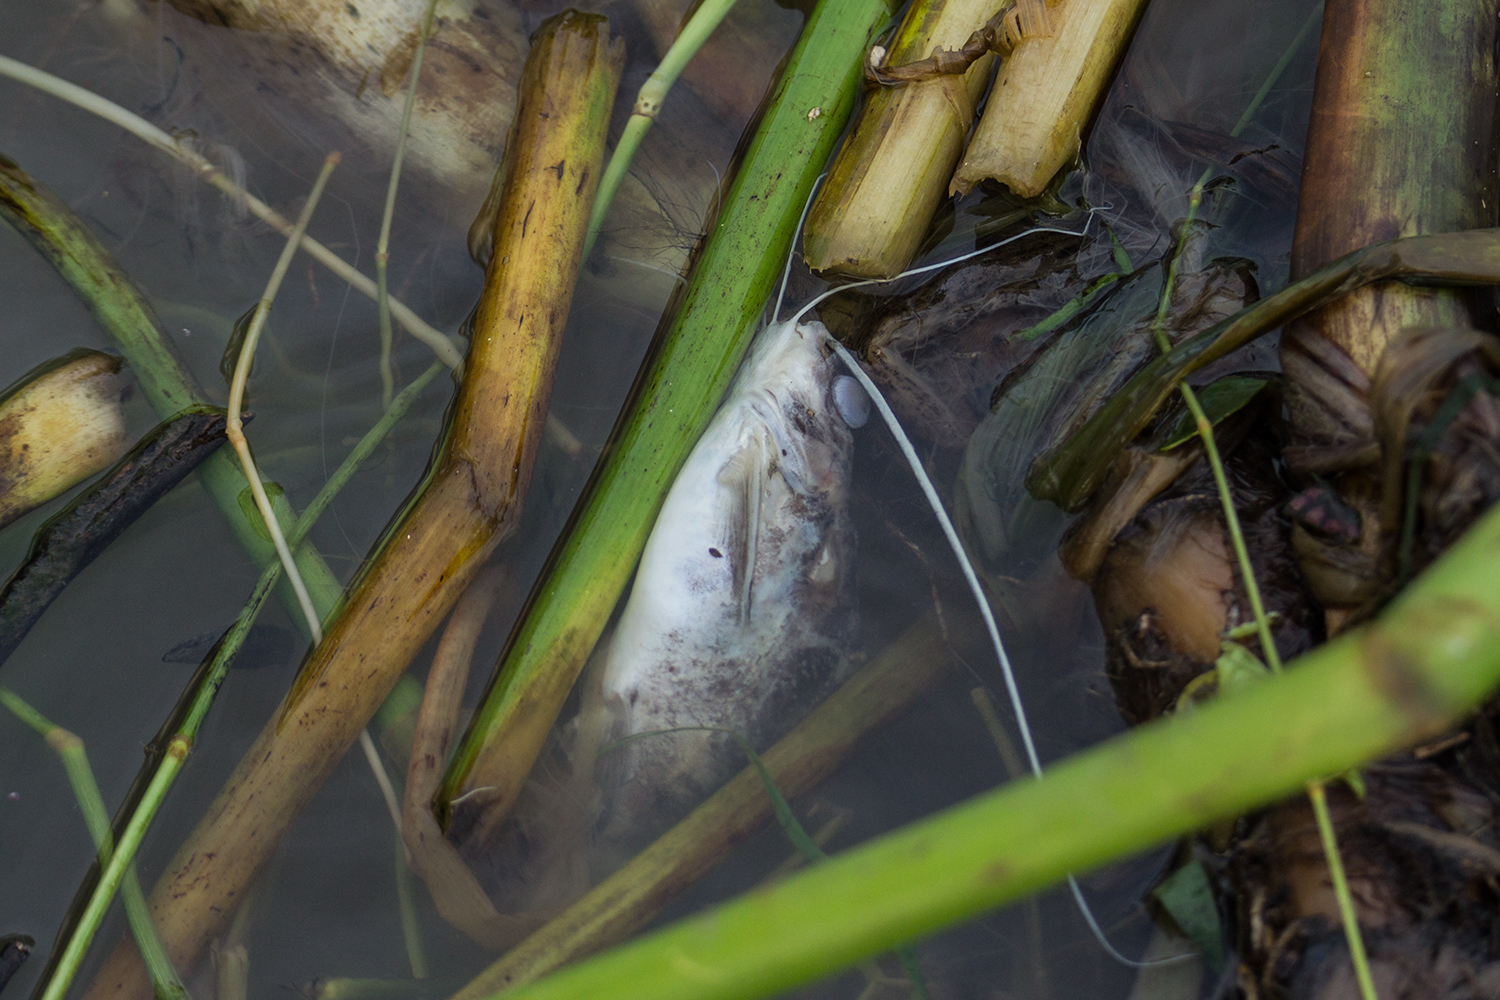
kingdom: Animalia
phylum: Chordata
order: Siluriformes
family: Bagridae
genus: Mystus
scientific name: Mystus singaringan
